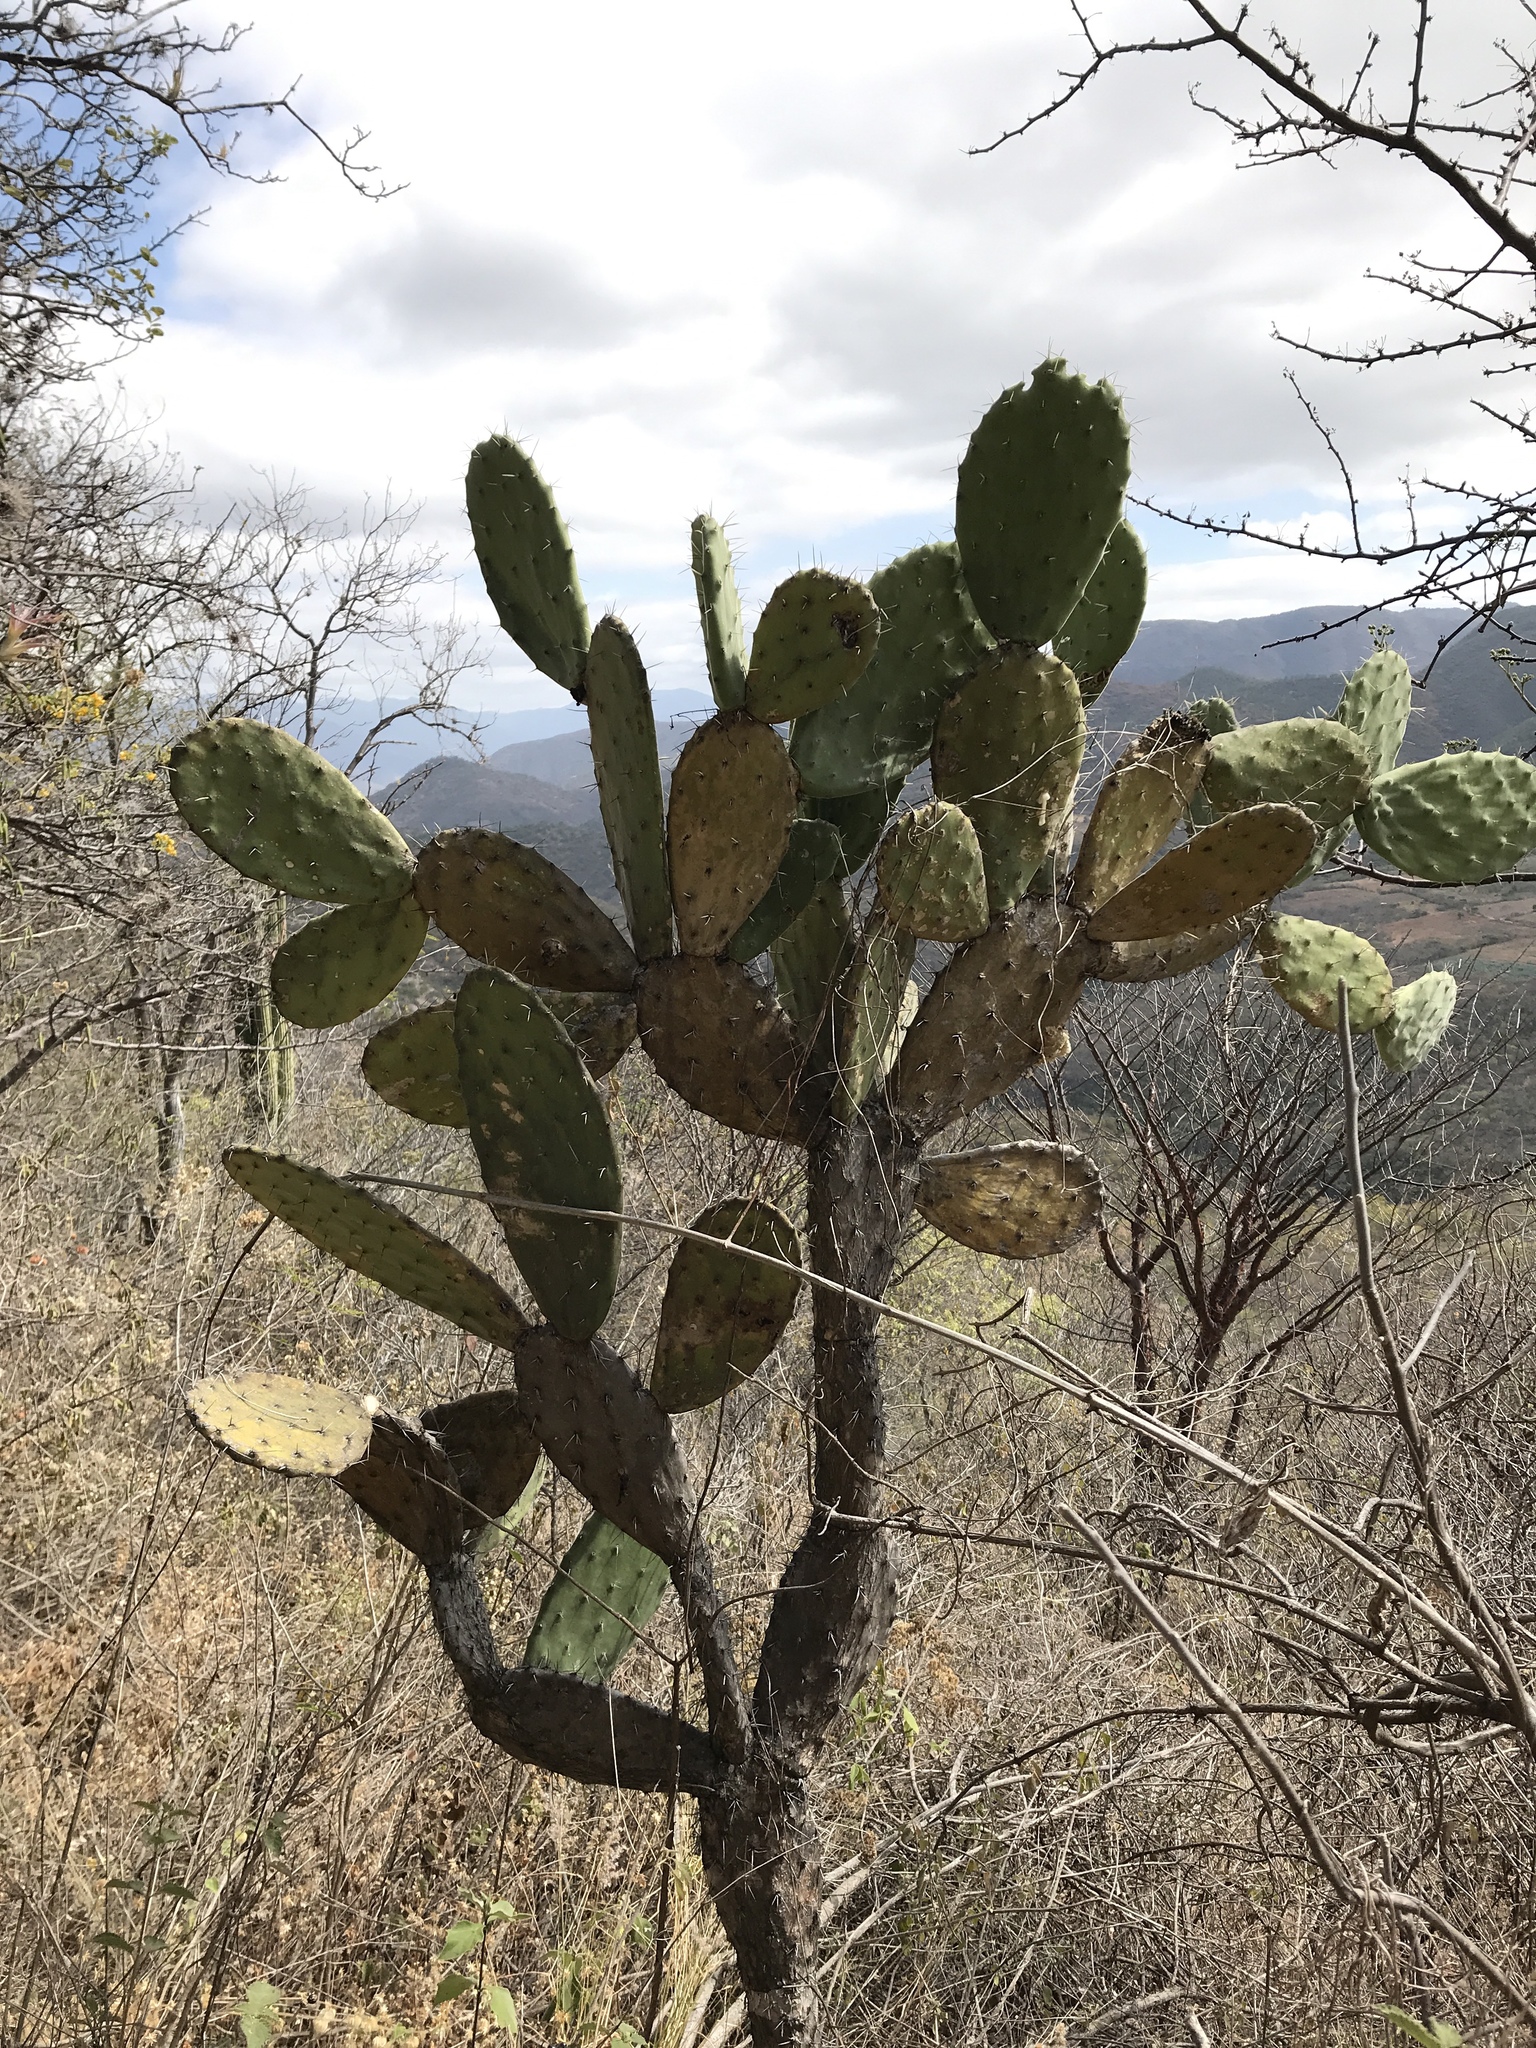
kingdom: Plantae
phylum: Tracheophyta
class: Magnoliopsida
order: Caryophyllales
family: Cactaceae
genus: Opuntia
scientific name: Opuntia tomentosa
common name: Woollyjoint pricklypear
